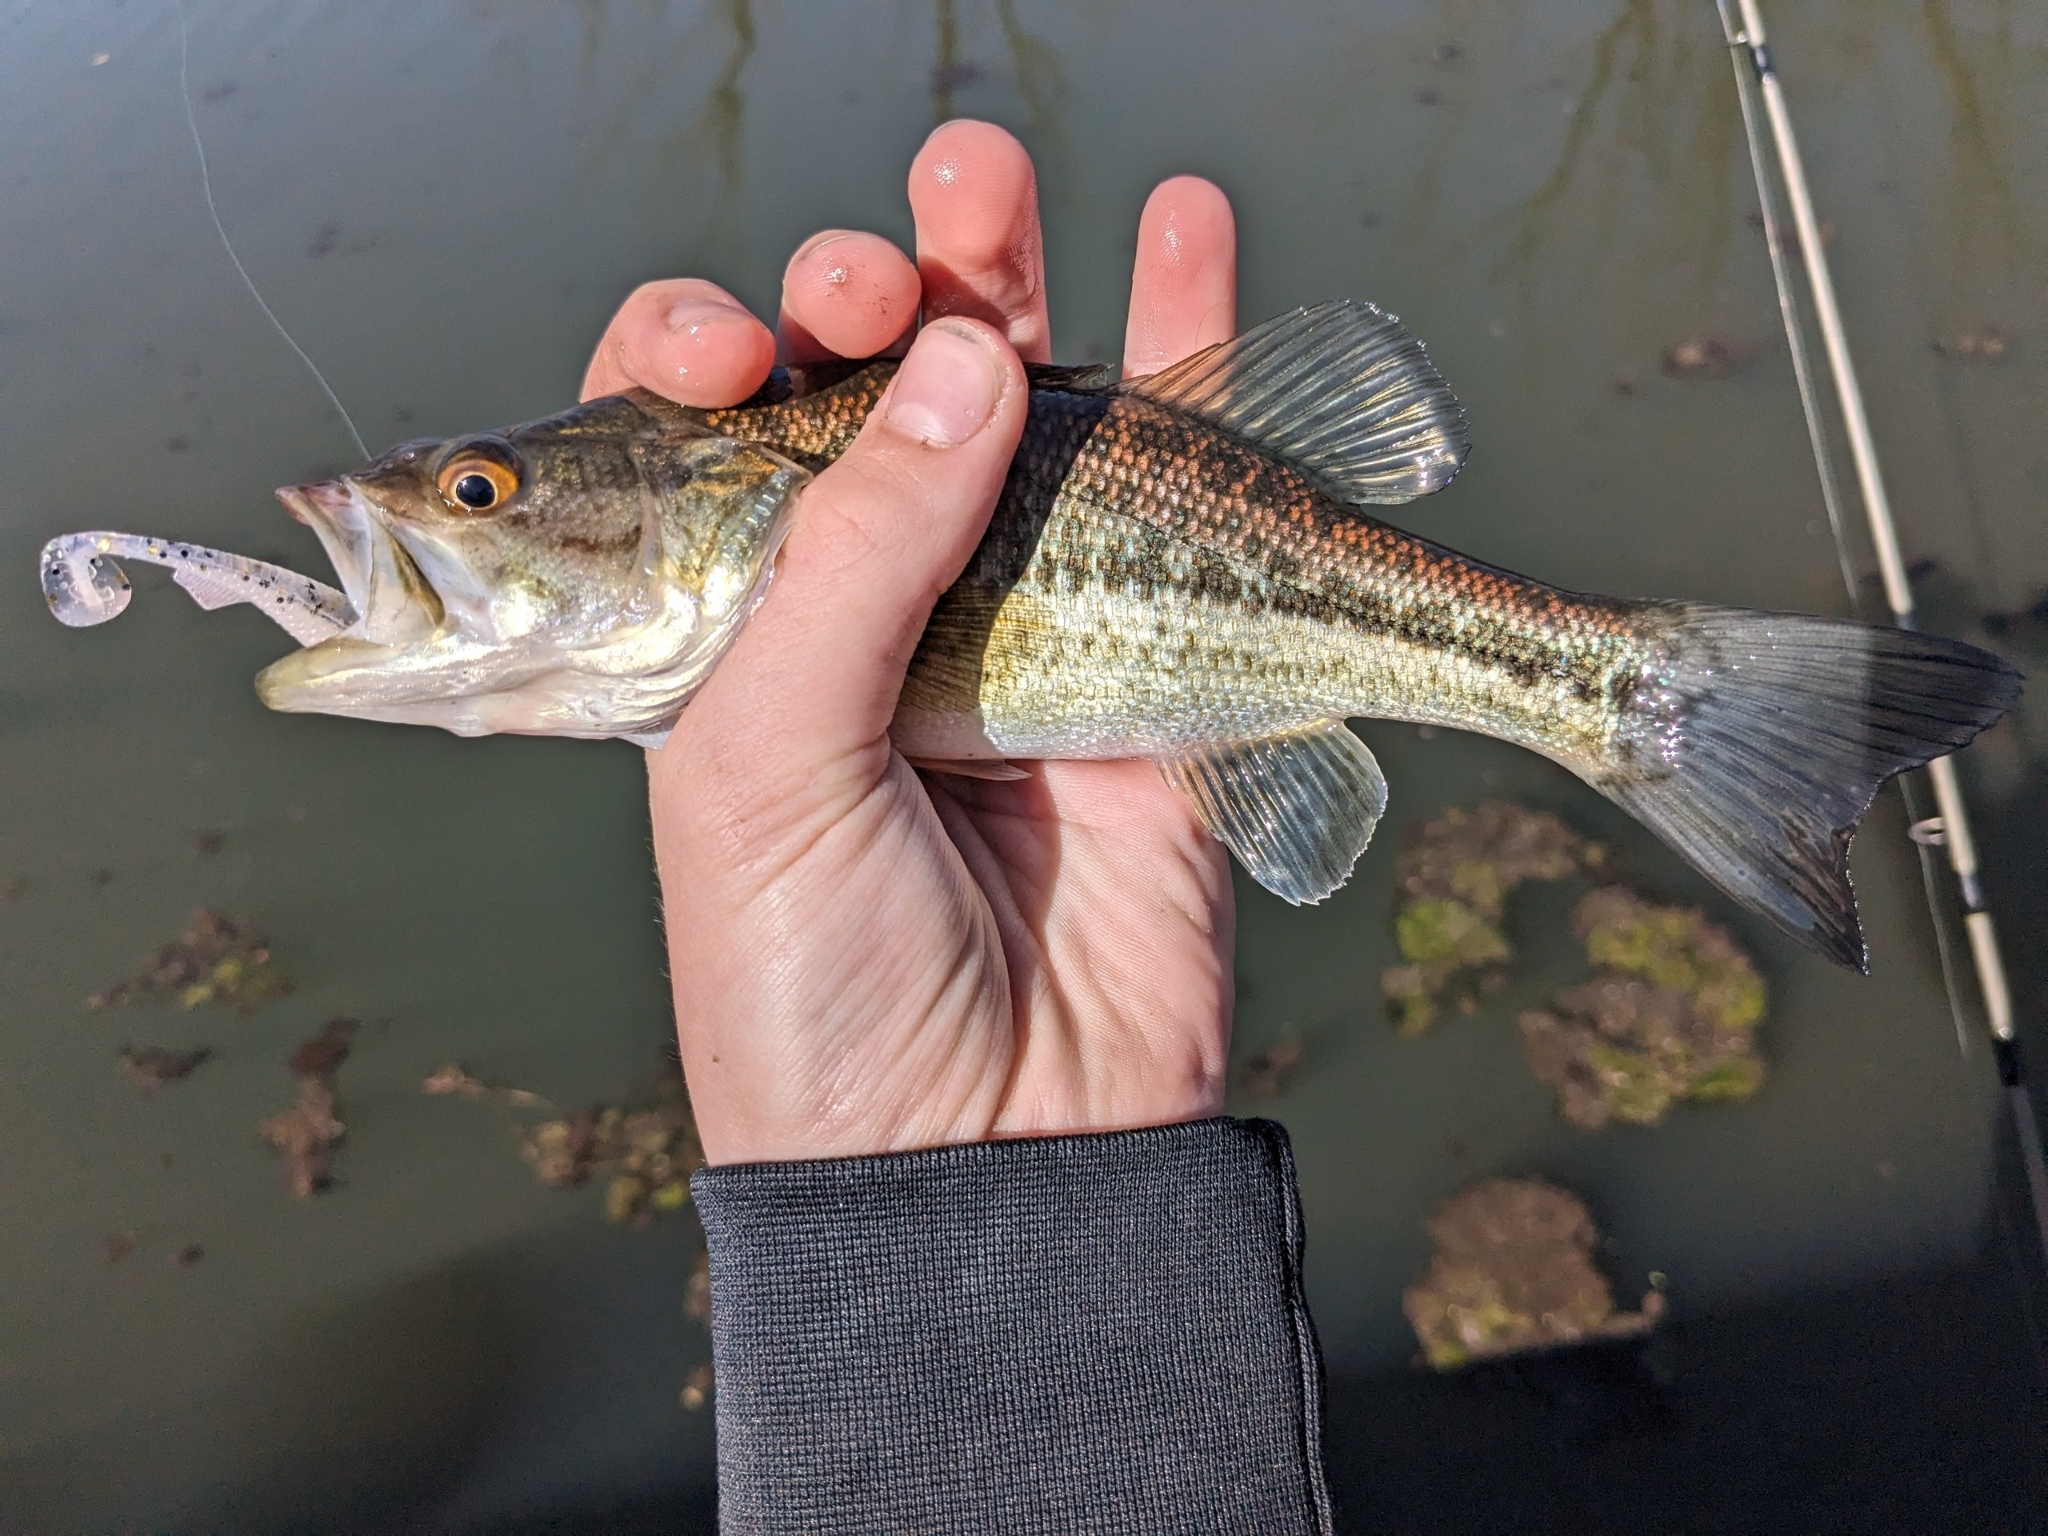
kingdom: Animalia
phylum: Chordata
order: Perciformes
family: Centrarchidae
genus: Micropterus
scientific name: Micropterus
